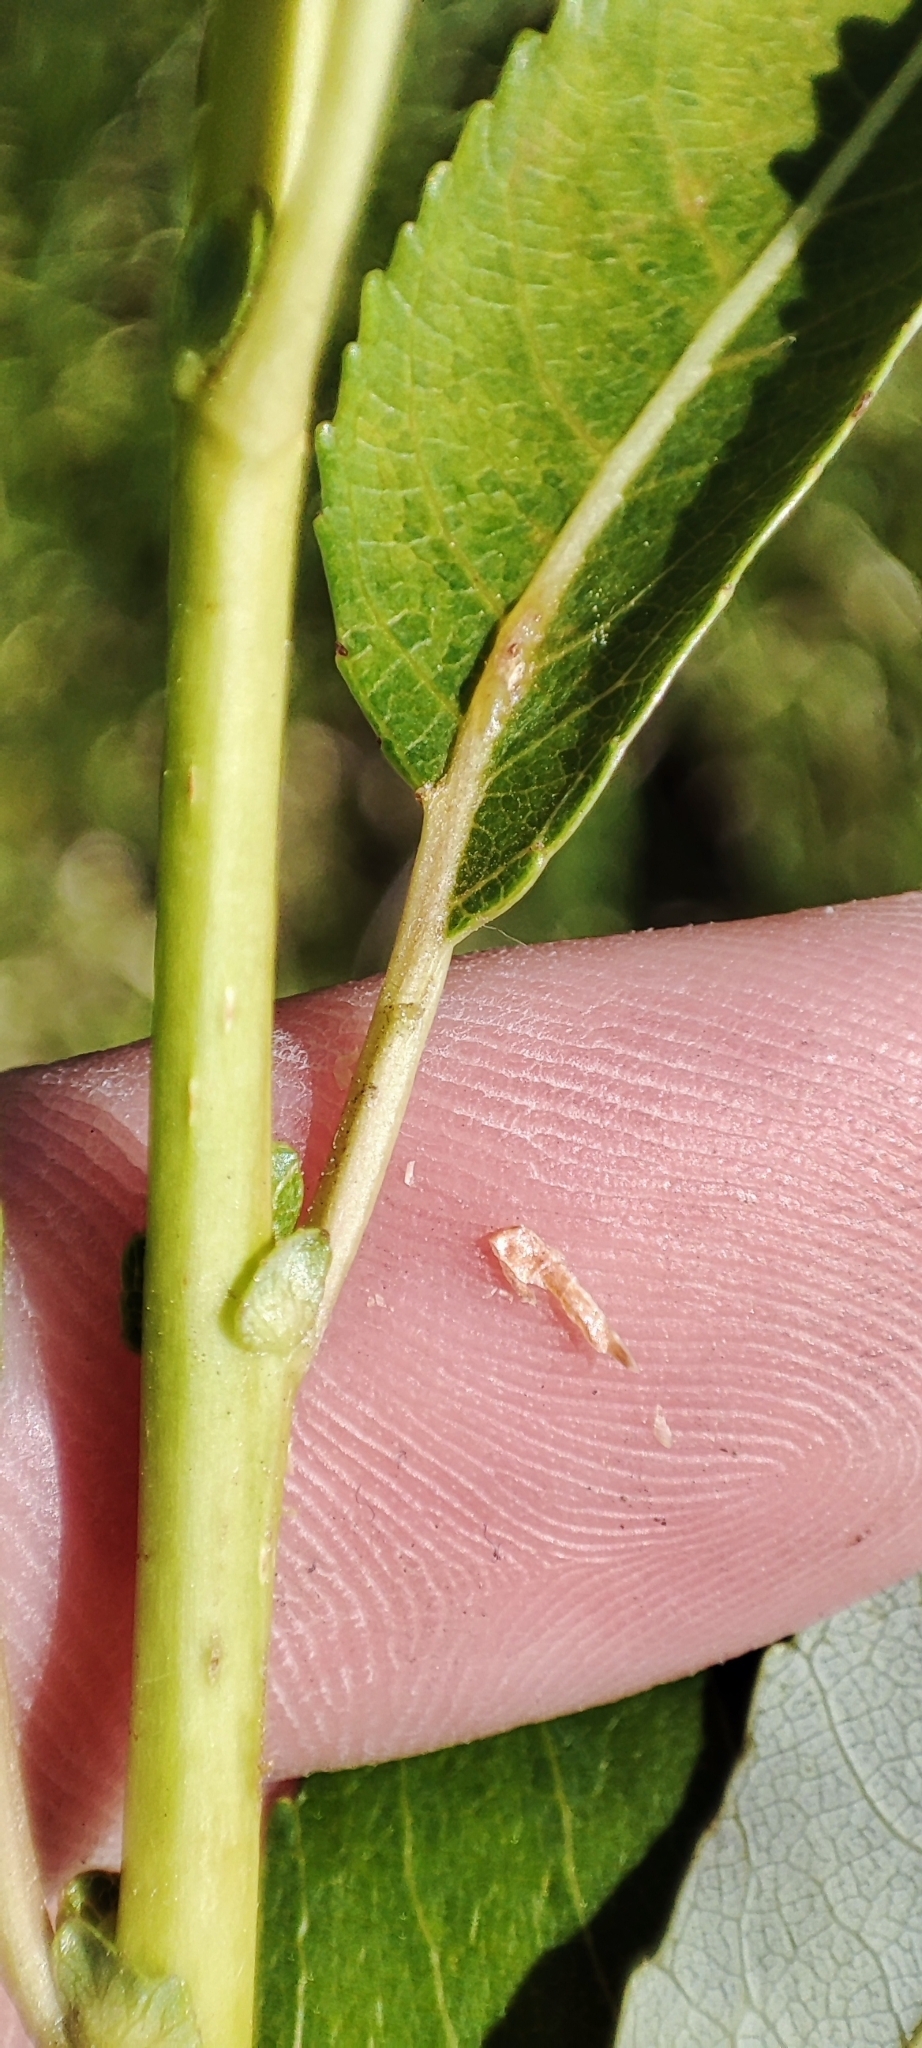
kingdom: Plantae
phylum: Tracheophyta
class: Magnoliopsida
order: Malpighiales
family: Salicaceae
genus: Salix
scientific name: Salix triandra
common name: Almond willow
